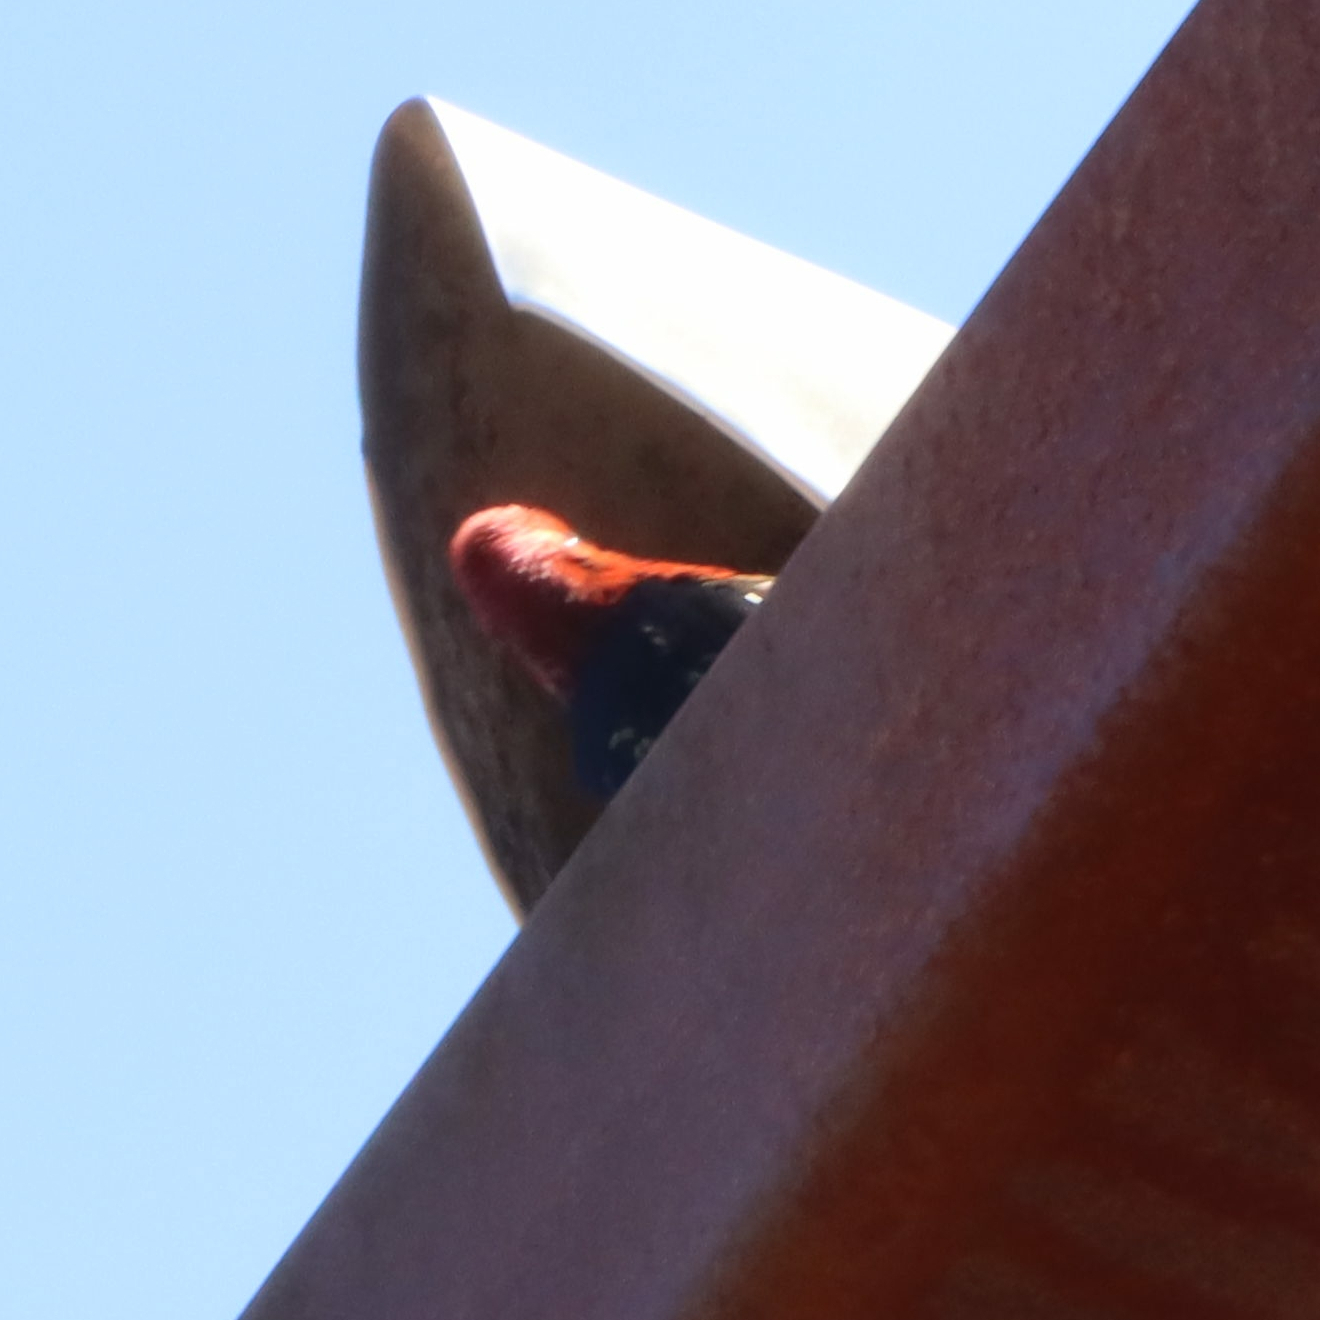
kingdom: Animalia
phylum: Chordata
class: Aves
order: Piciformes
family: Picidae
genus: Sphyrapicus
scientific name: Sphyrapicus ruber
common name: Red-breasted sapsucker
